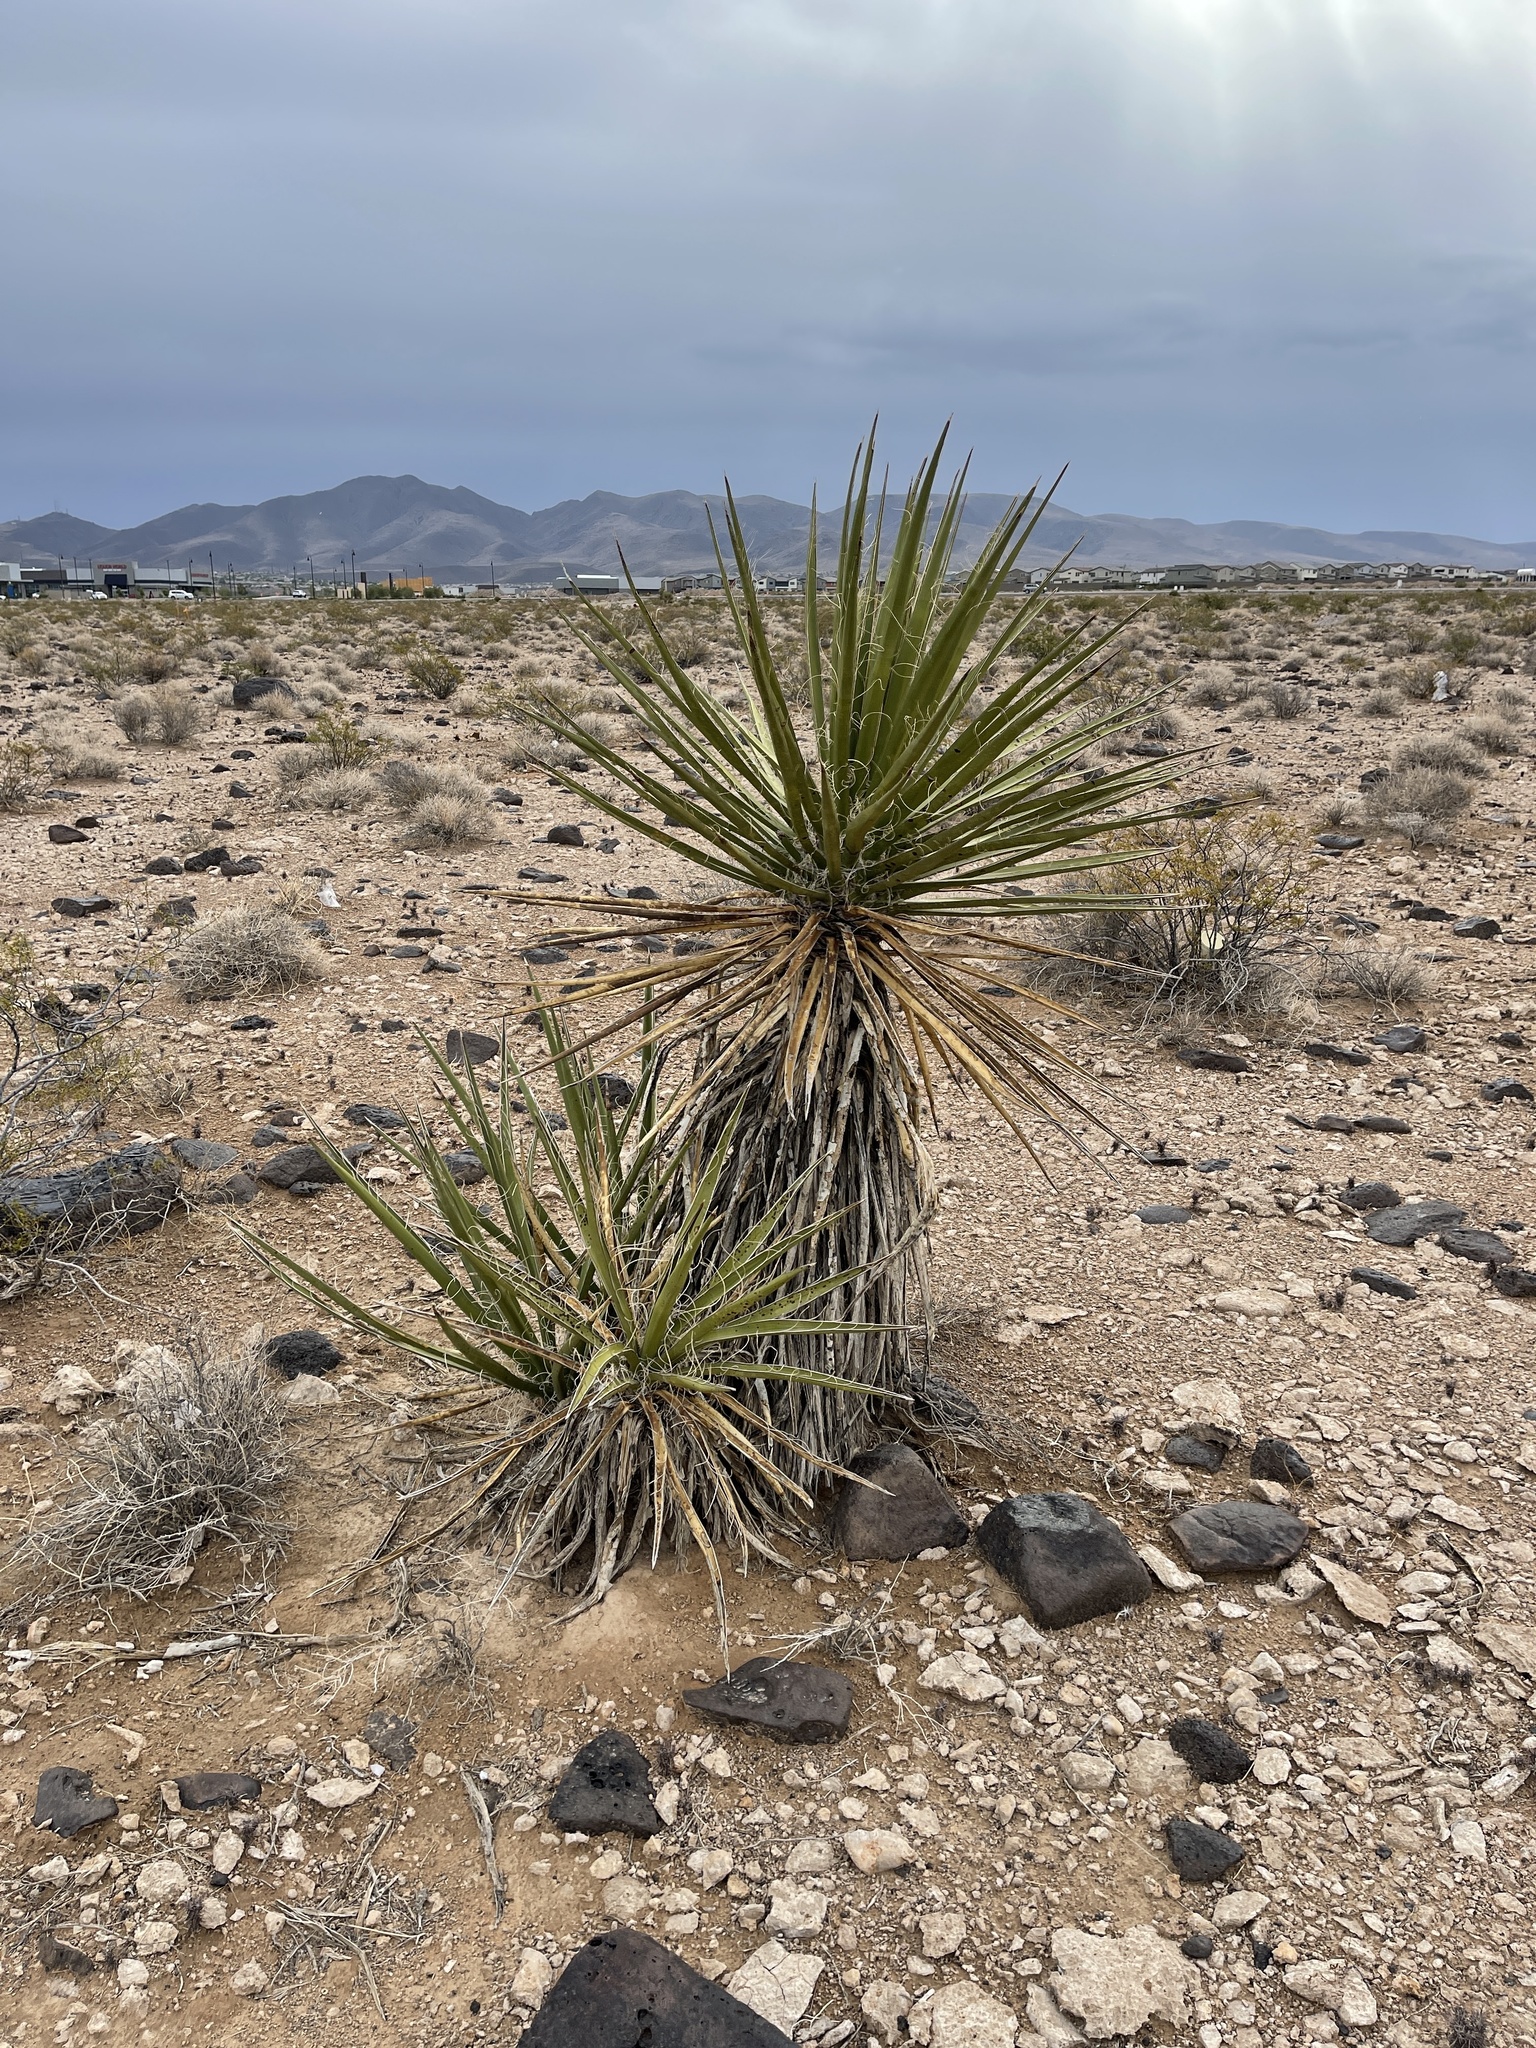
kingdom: Plantae
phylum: Tracheophyta
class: Liliopsida
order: Asparagales
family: Asparagaceae
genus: Yucca
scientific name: Yucca schidigera
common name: Mojave yucca
